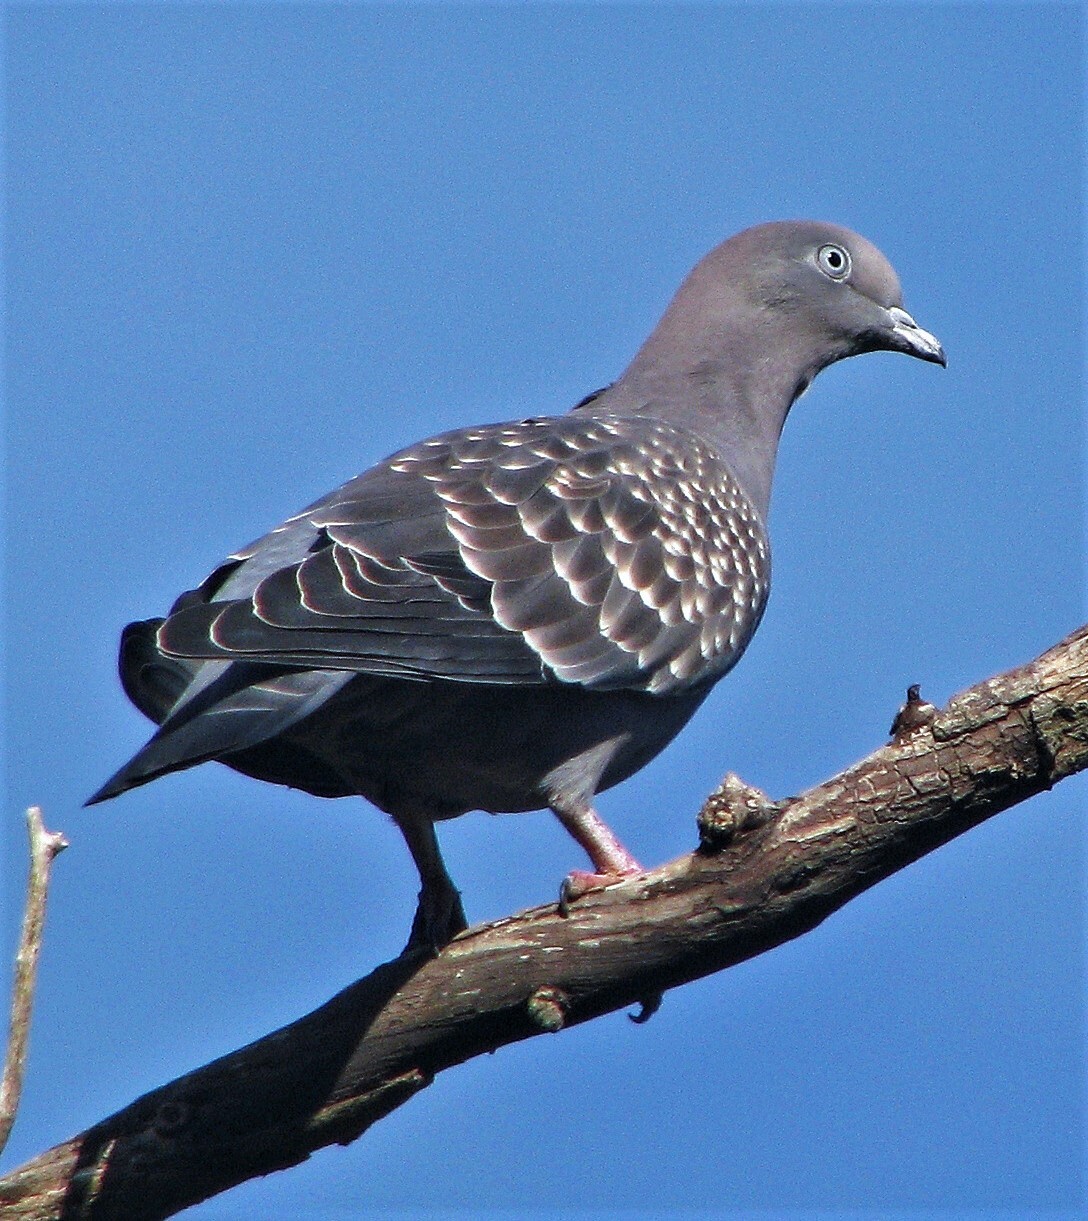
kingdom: Animalia
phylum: Chordata
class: Aves
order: Columbiformes
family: Columbidae
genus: Patagioenas
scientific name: Patagioenas maculosa
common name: Spot-winged pigeon
